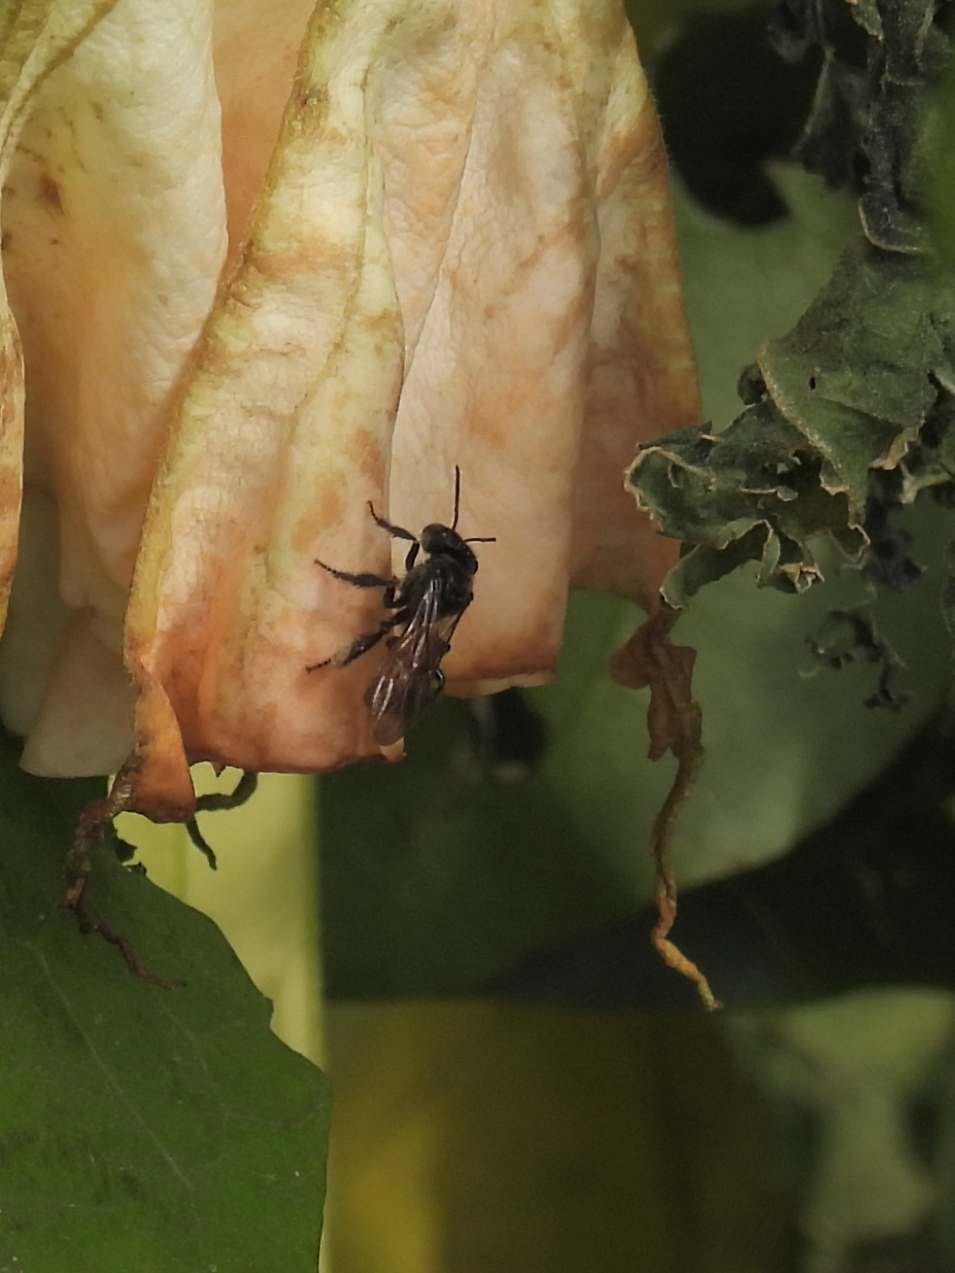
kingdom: Animalia
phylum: Arthropoda
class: Insecta
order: Hymenoptera
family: Apidae
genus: Trigona
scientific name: Trigona fulviventris
